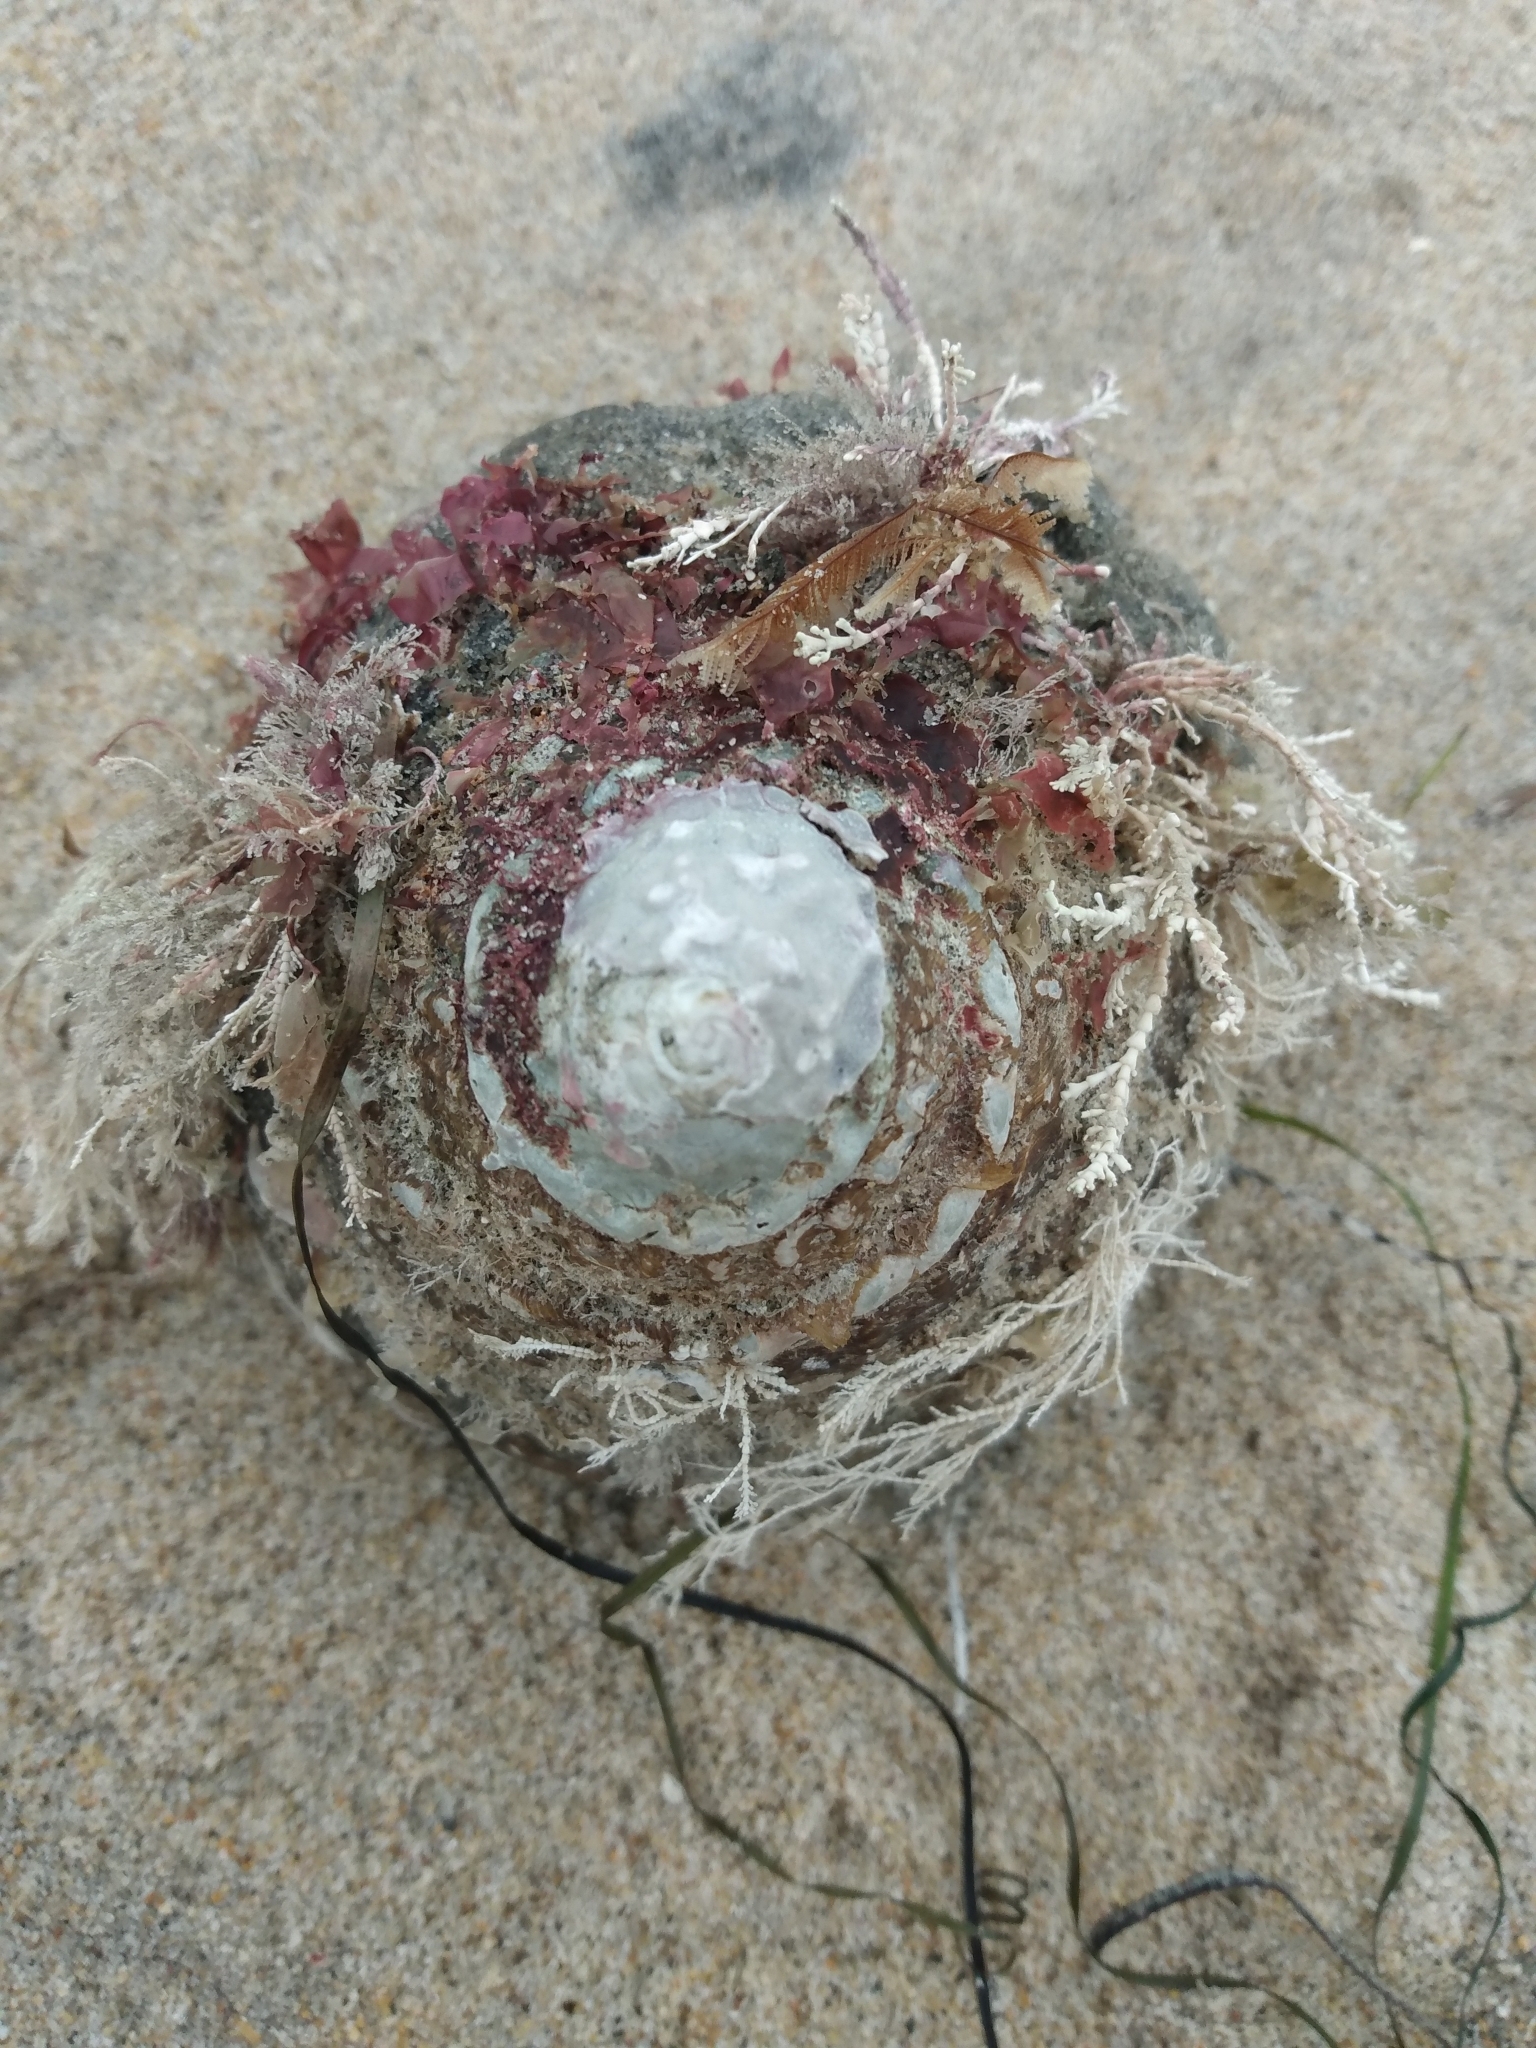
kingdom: Animalia
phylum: Mollusca
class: Gastropoda
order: Trochida
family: Turbinidae
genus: Megastraea
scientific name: Megastraea undosa
